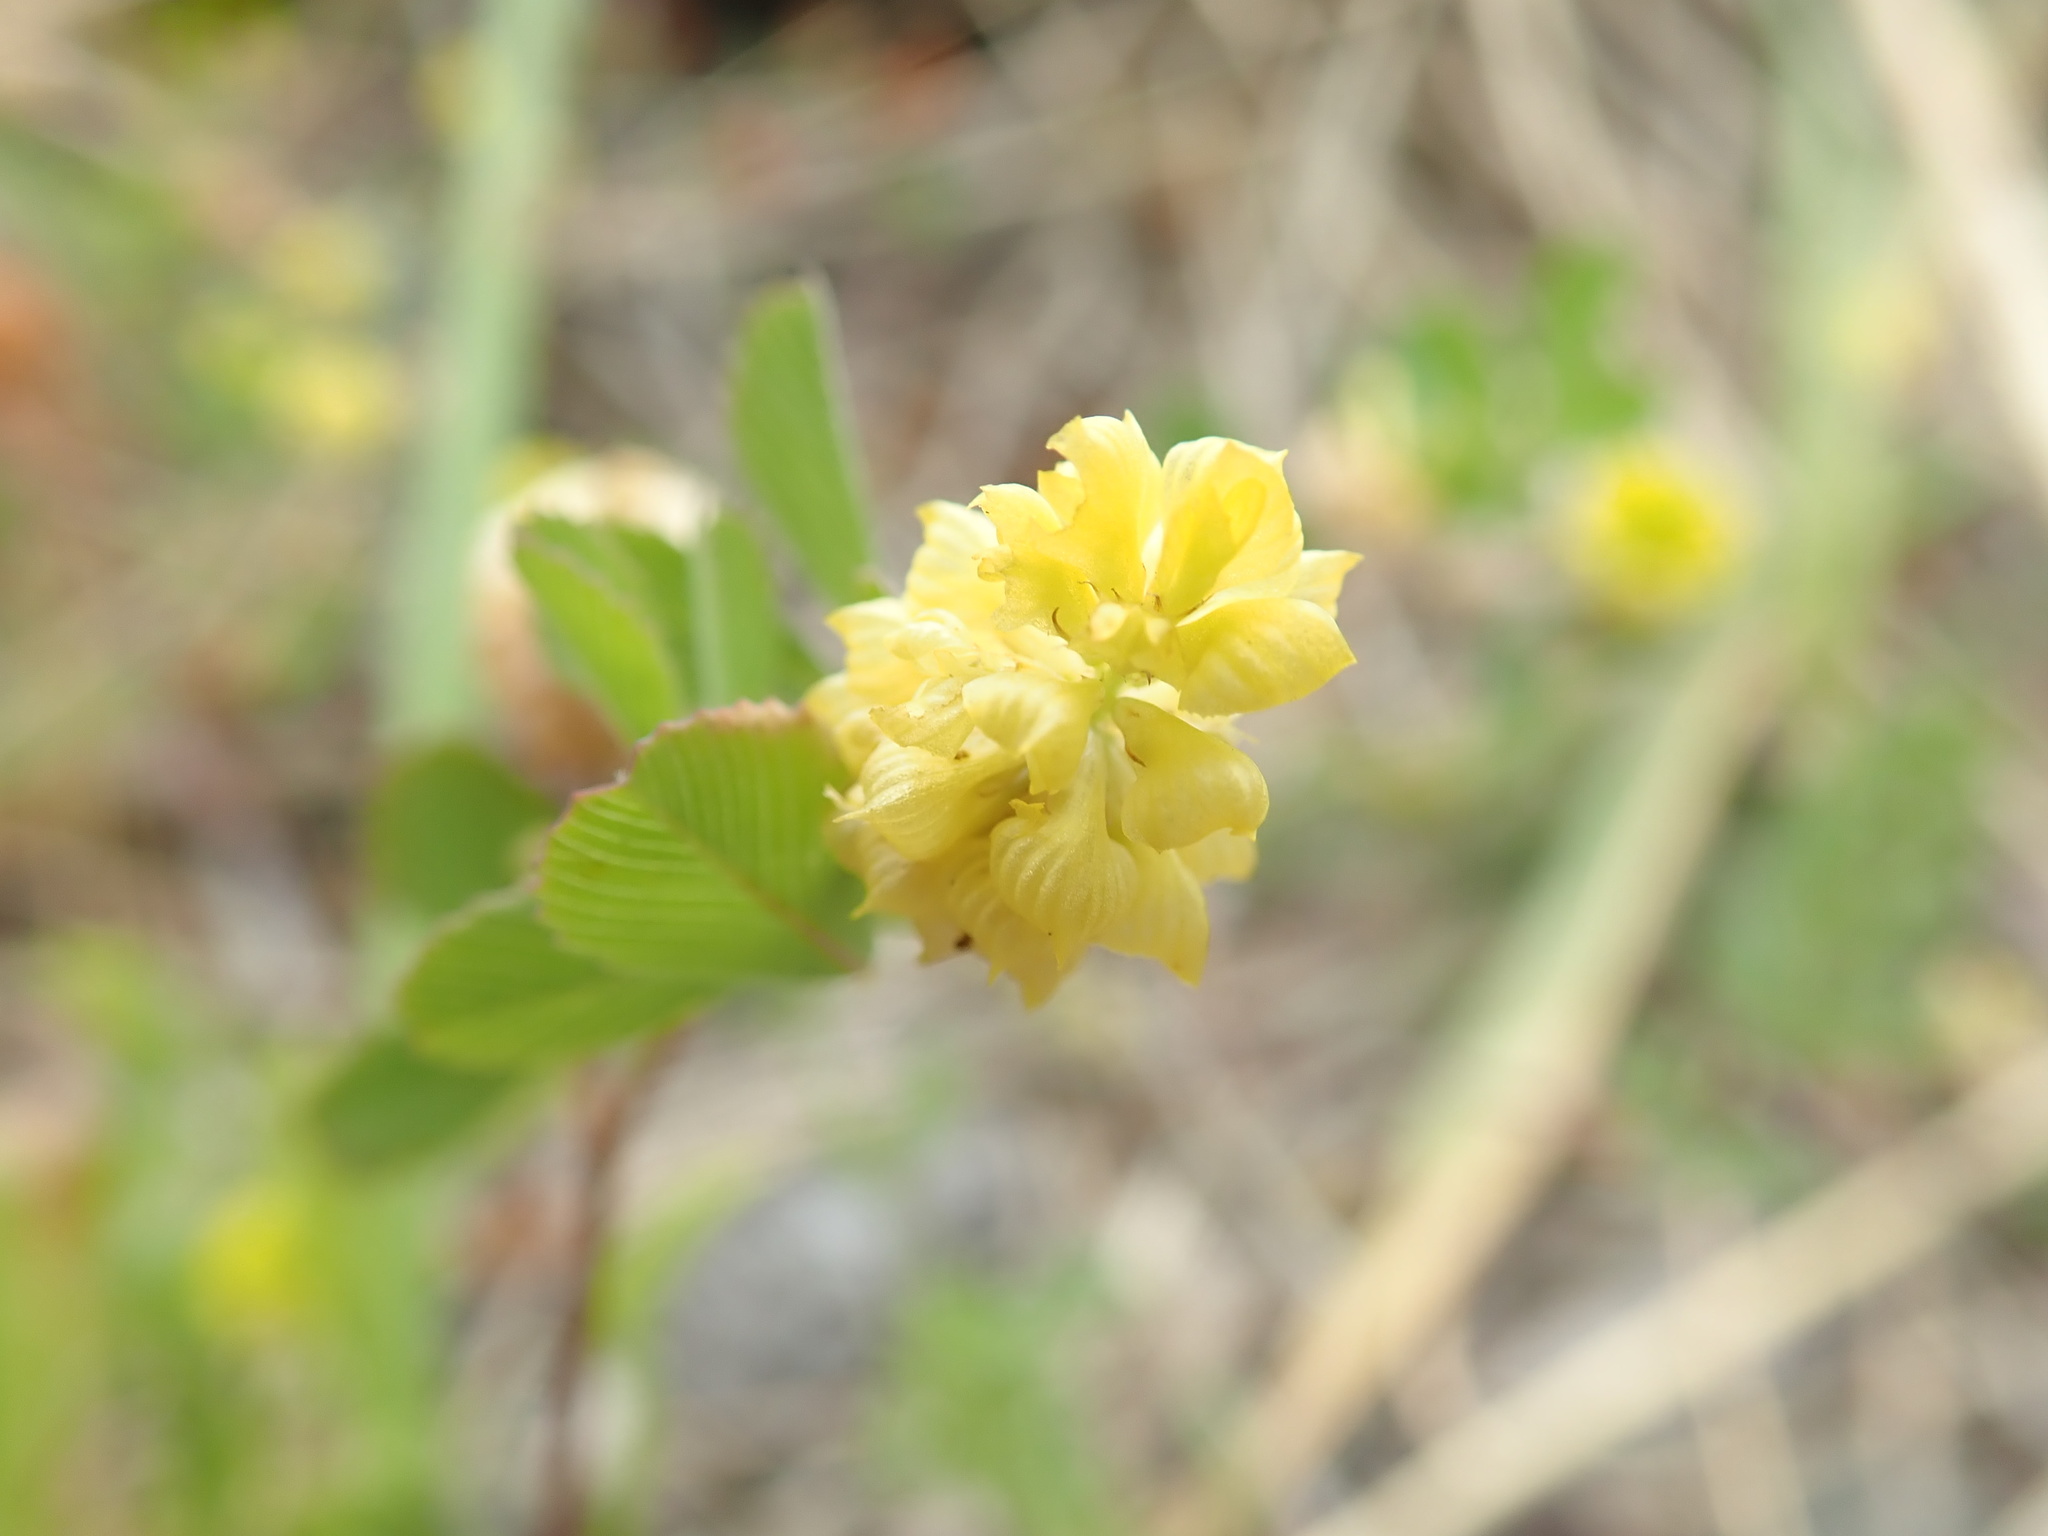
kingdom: Plantae
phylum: Tracheophyta
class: Magnoliopsida
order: Fabales
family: Fabaceae
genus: Trifolium
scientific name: Trifolium campestre
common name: Field clover
